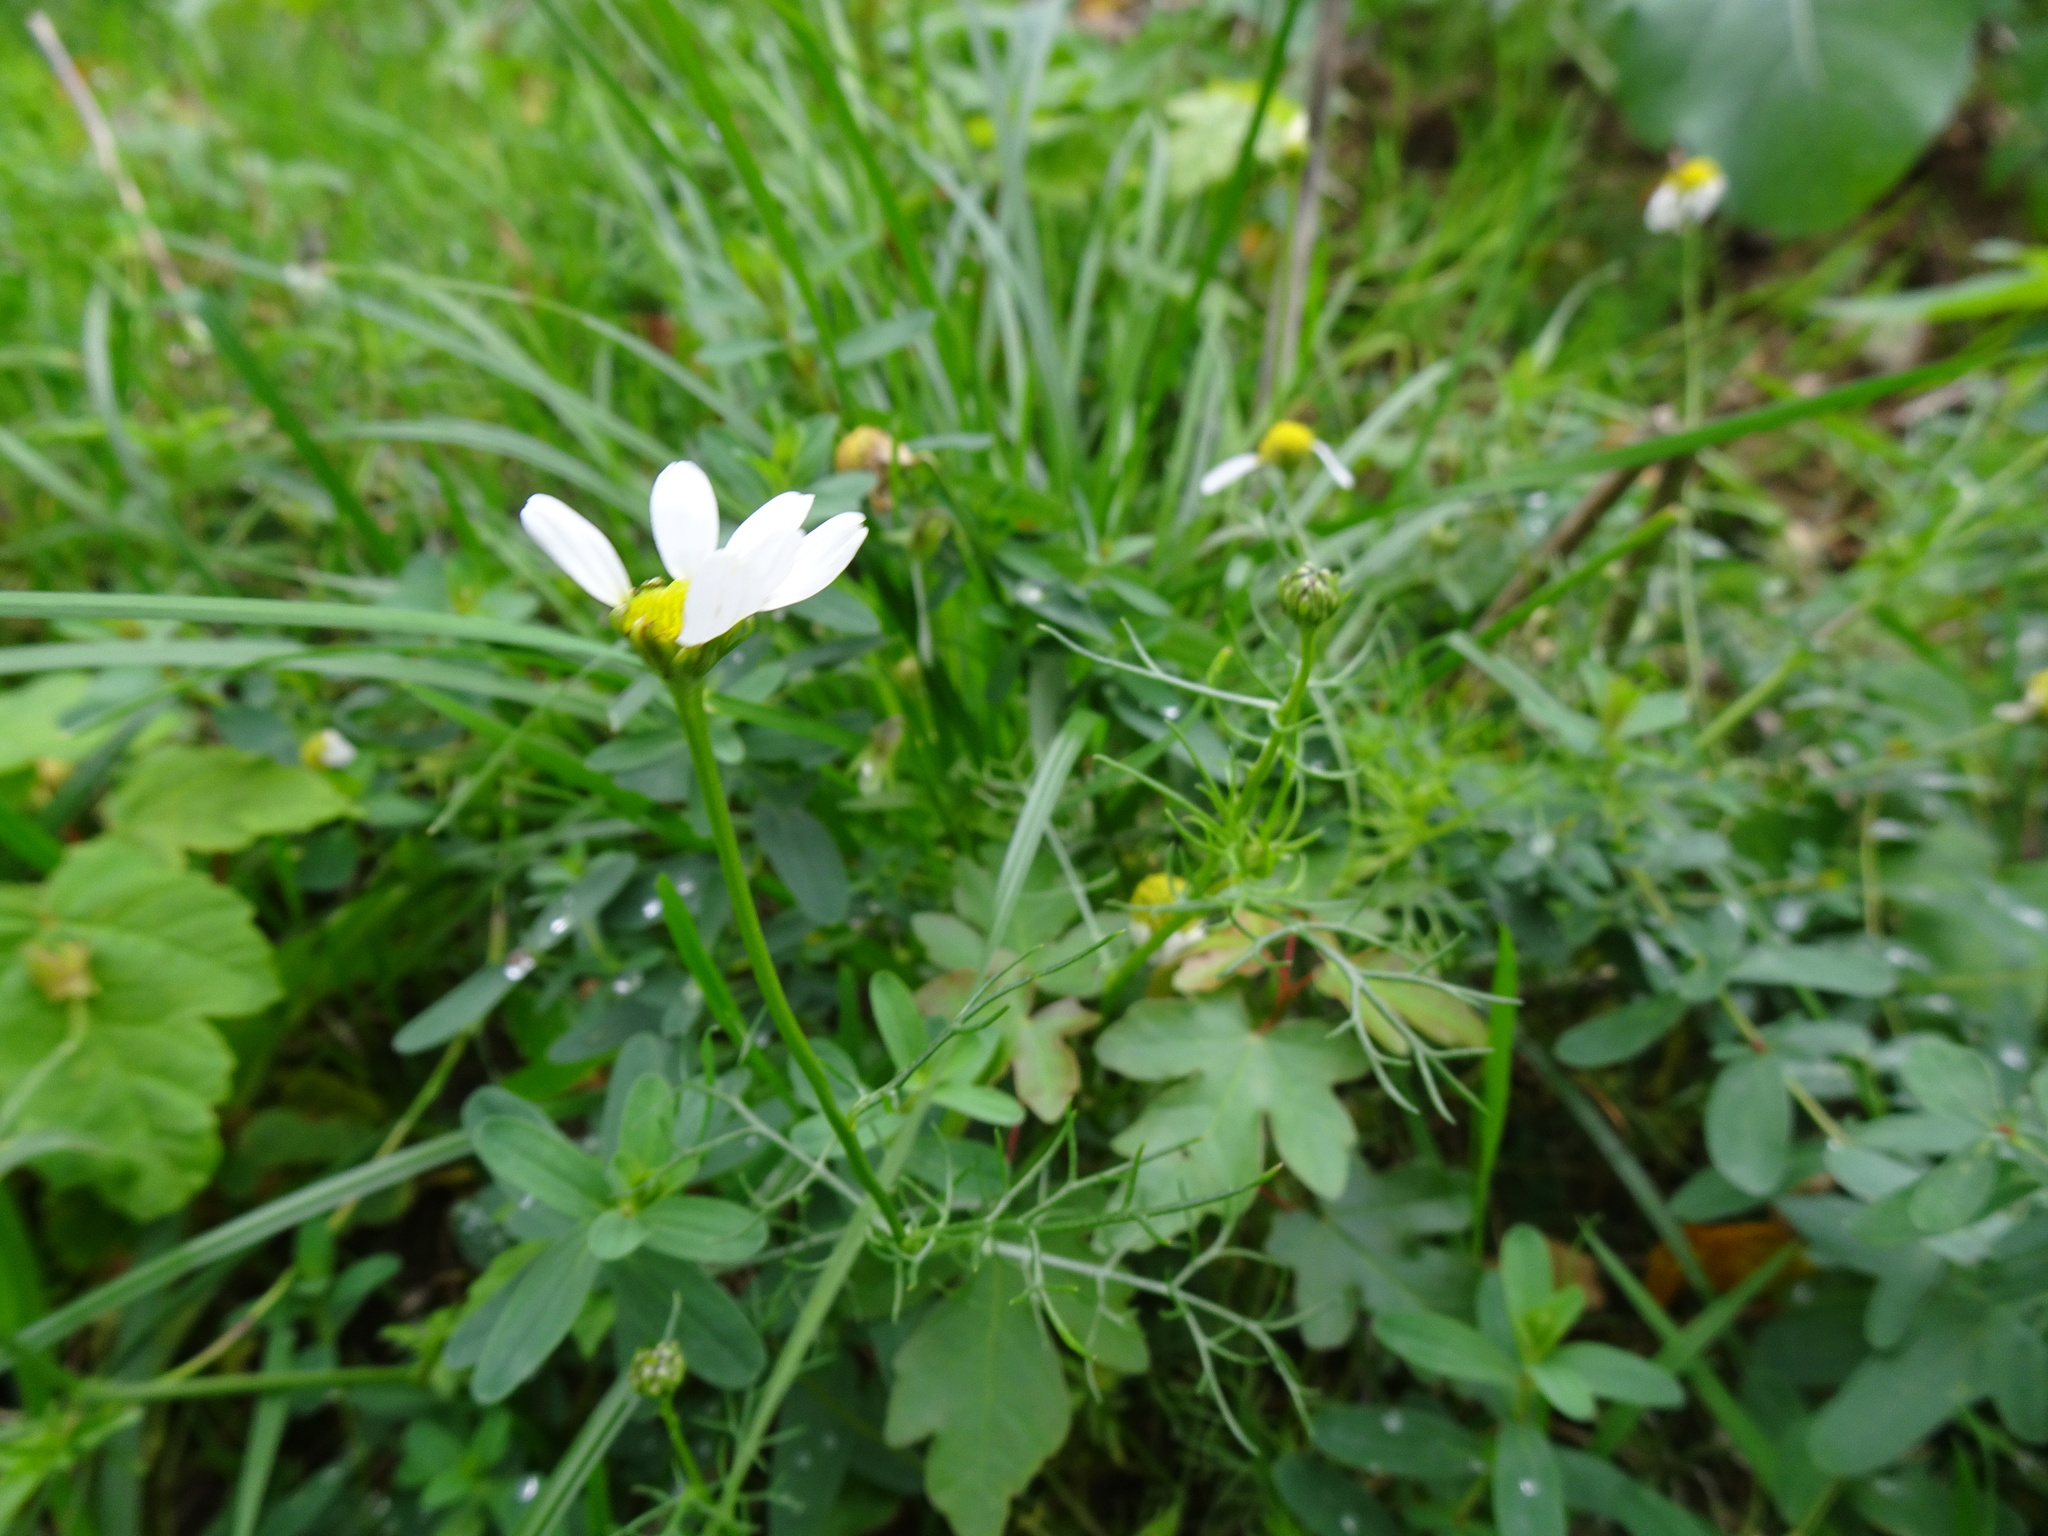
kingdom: Plantae
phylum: Tracheophyta
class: Magnoliopsida
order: Asterales
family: Asteraceae
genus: Tripleurospermum
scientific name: Tripleurospermum inodorum
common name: Scentless mayweed
